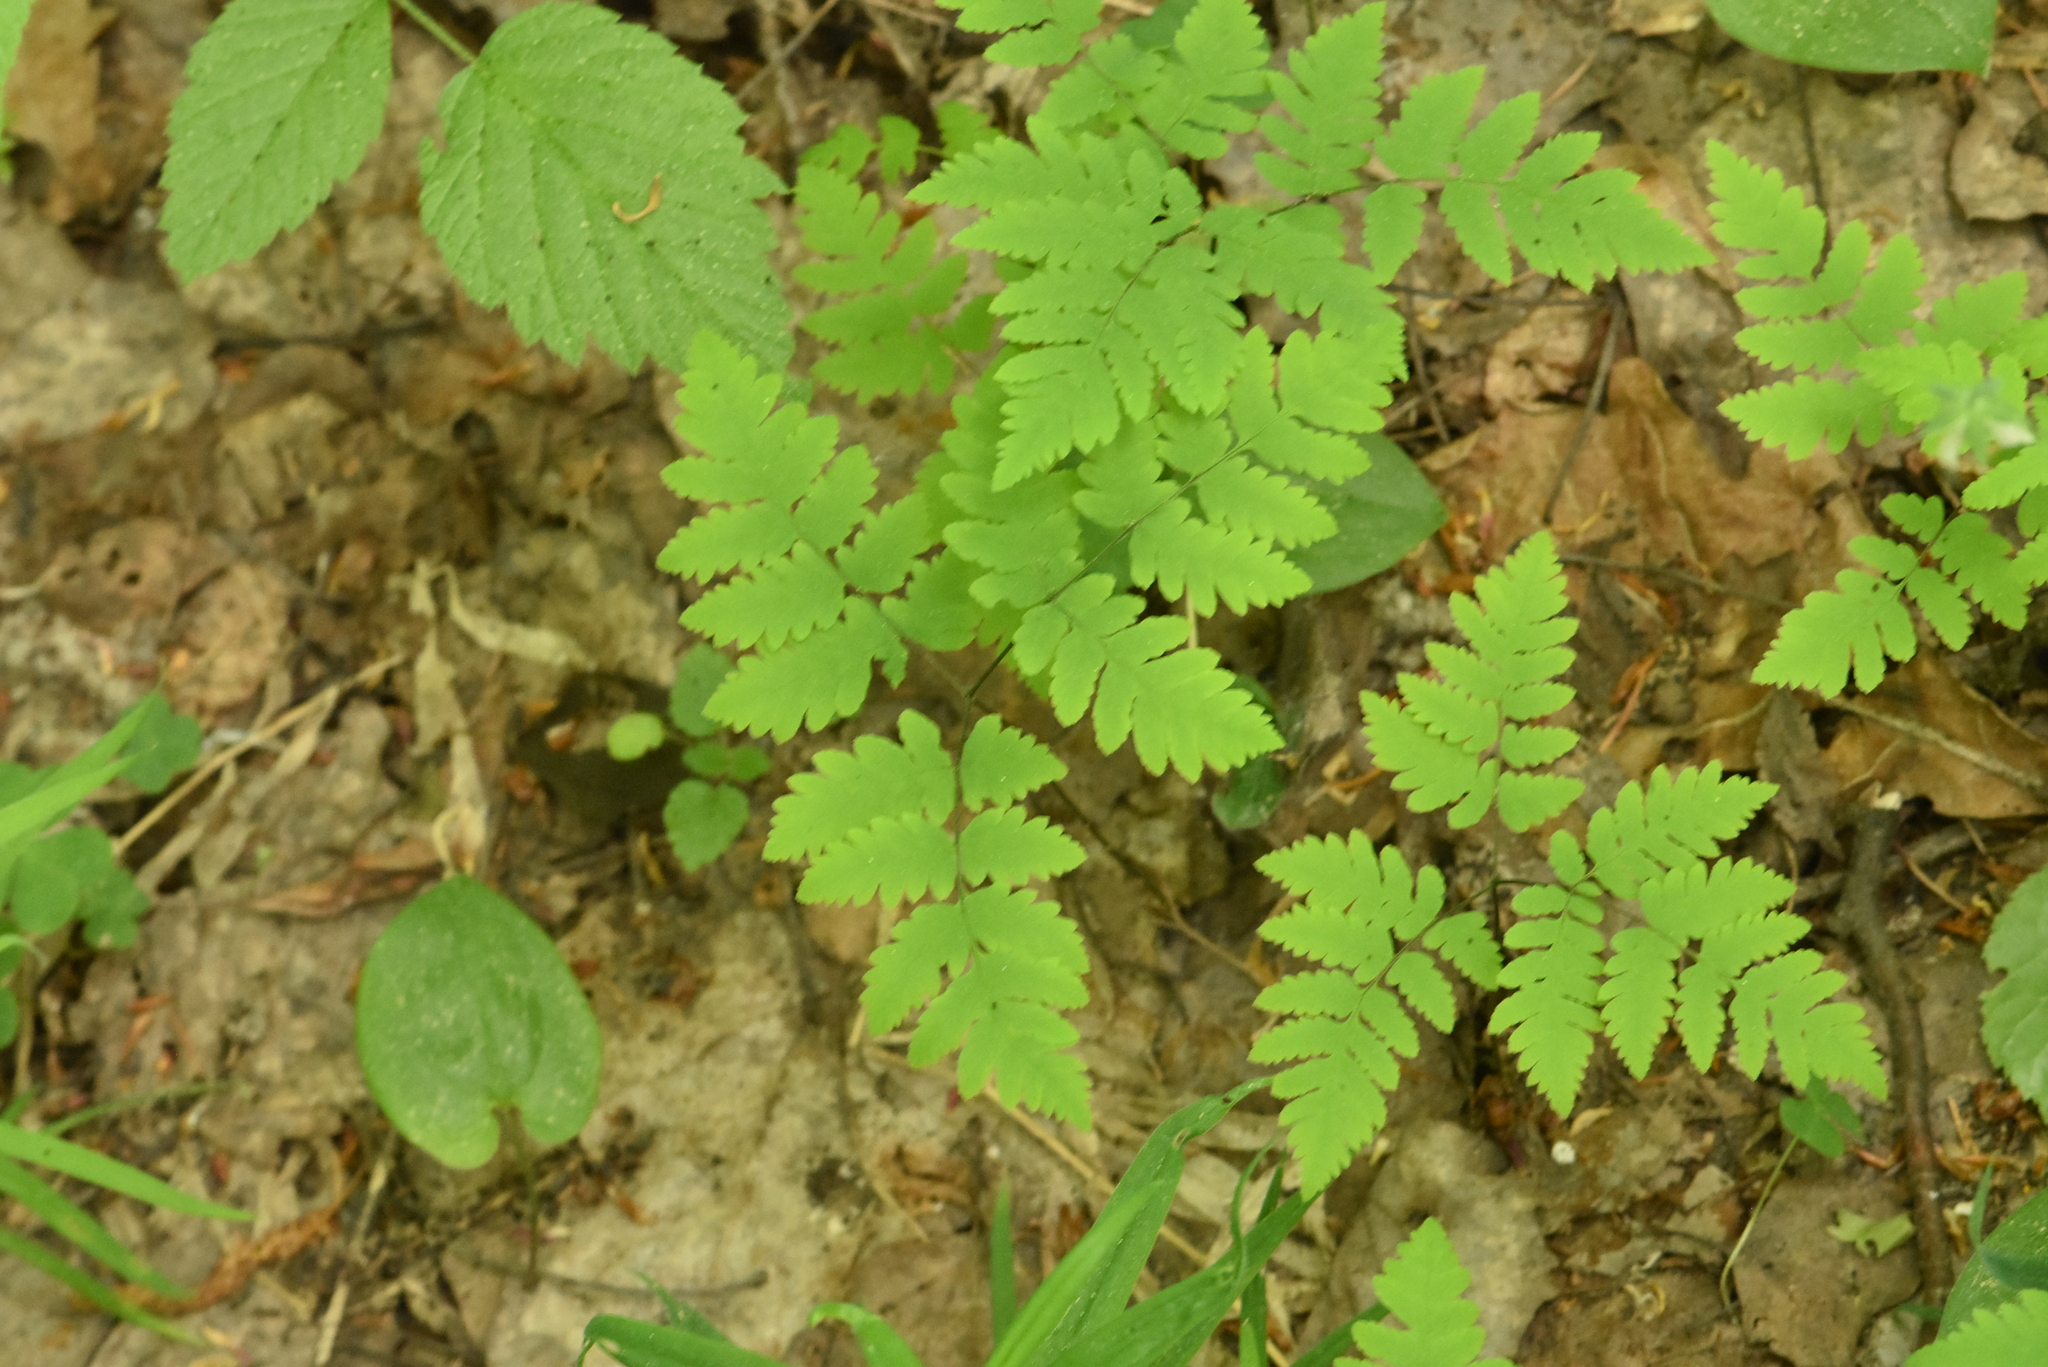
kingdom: Plantae
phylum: Tracheophyta
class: Polypodiopsida
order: Polypodiales
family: Cystopteridaceae
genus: Gymnocarpium
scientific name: Gymnocarpium dryopteris
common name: Oak fern
